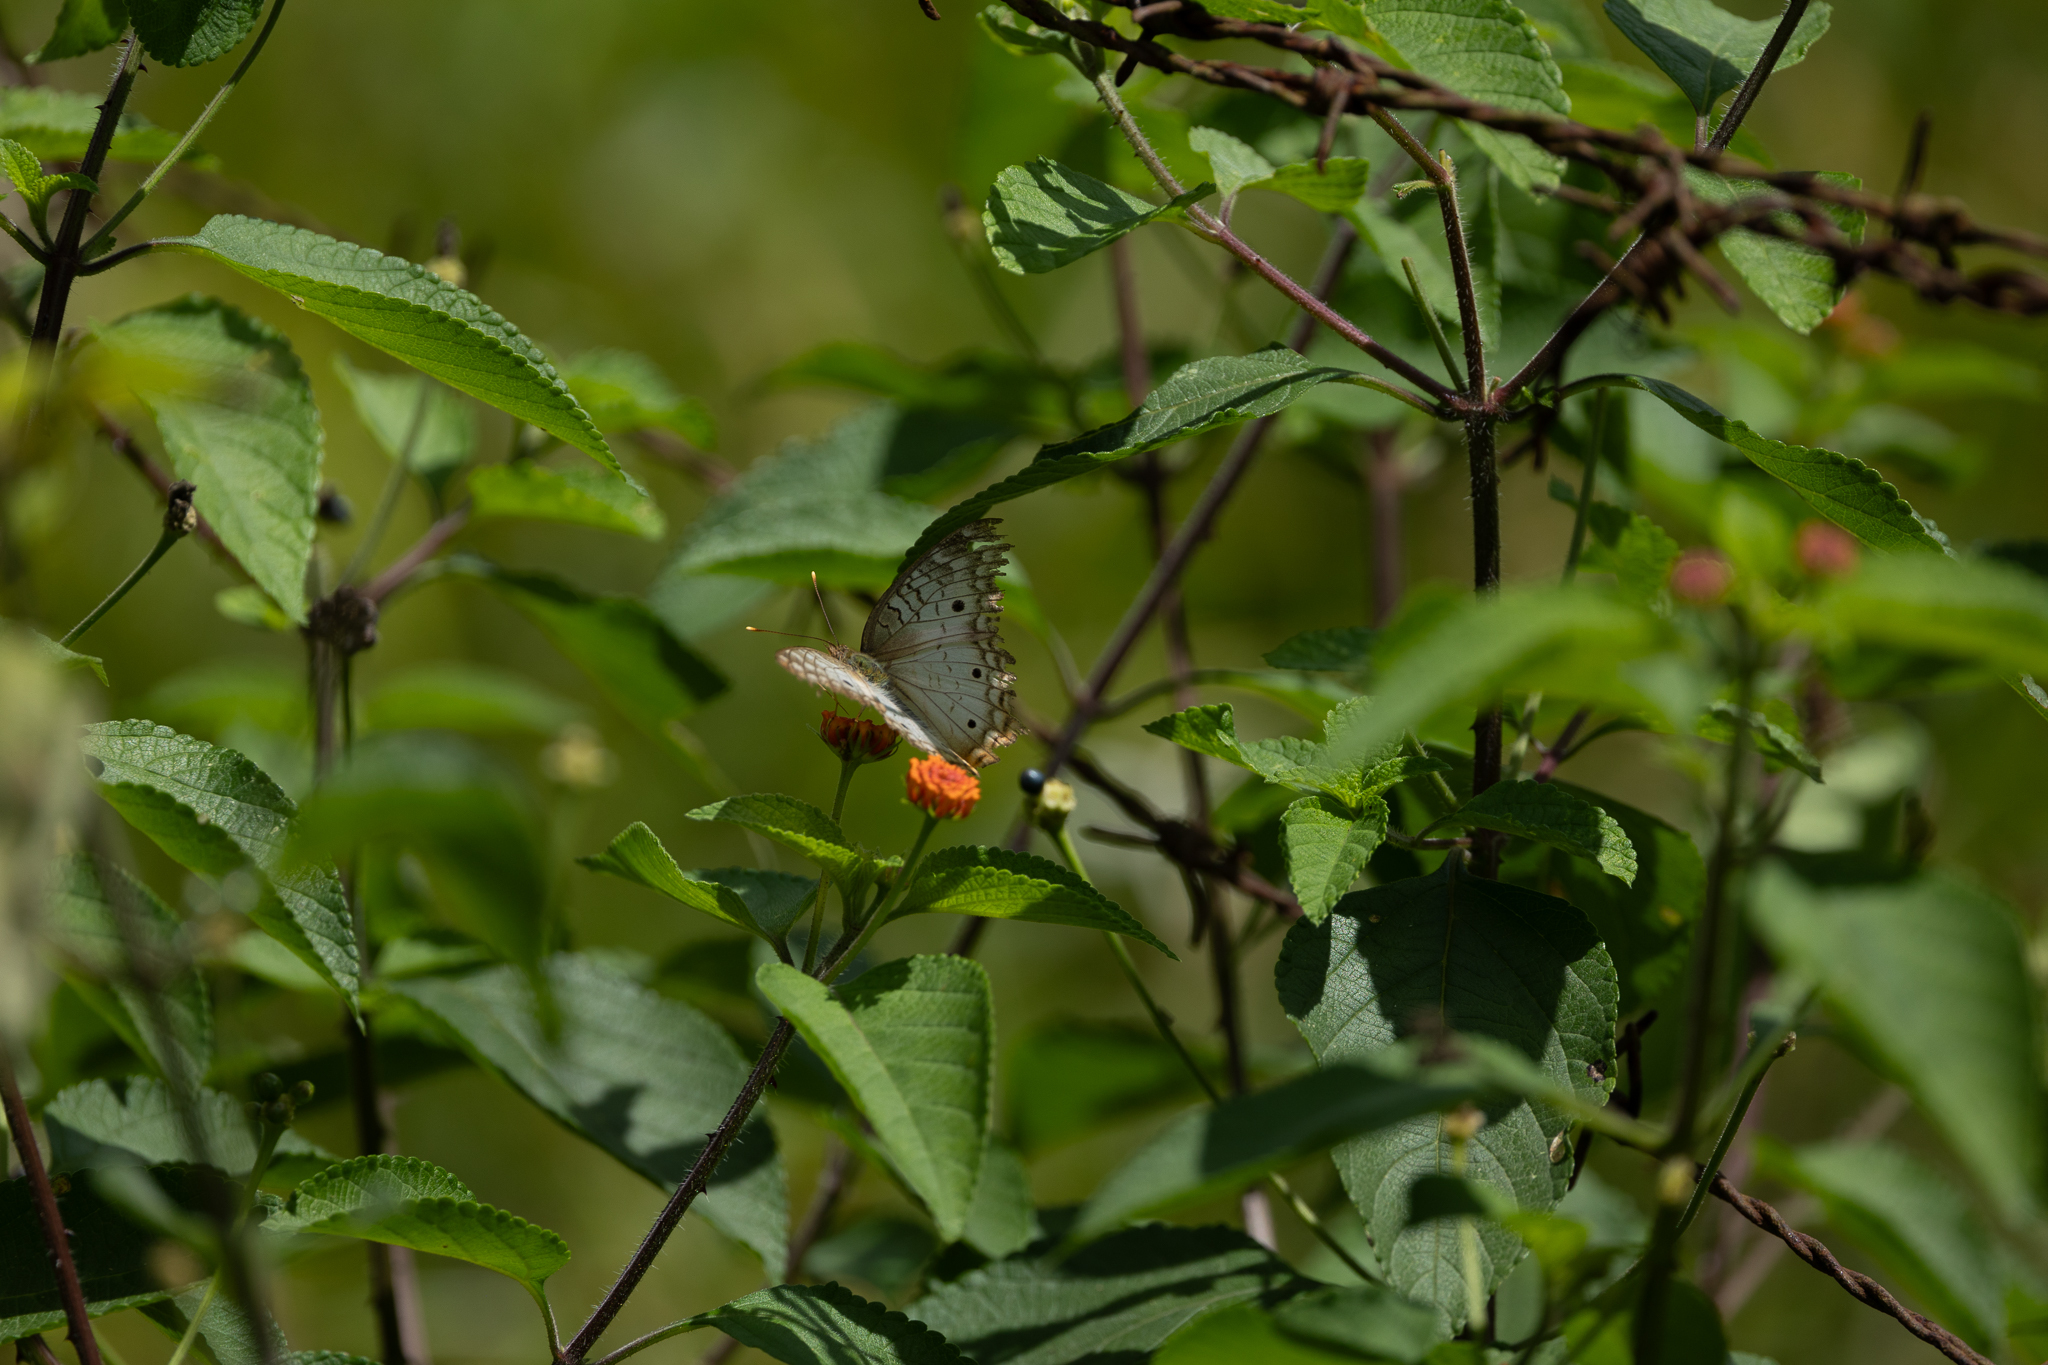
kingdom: Animalia
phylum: Arthropoda
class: Insecta
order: Lepidoptera
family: Nymphalidae
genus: Anartia
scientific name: Anartia jatrophae
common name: White peacock
